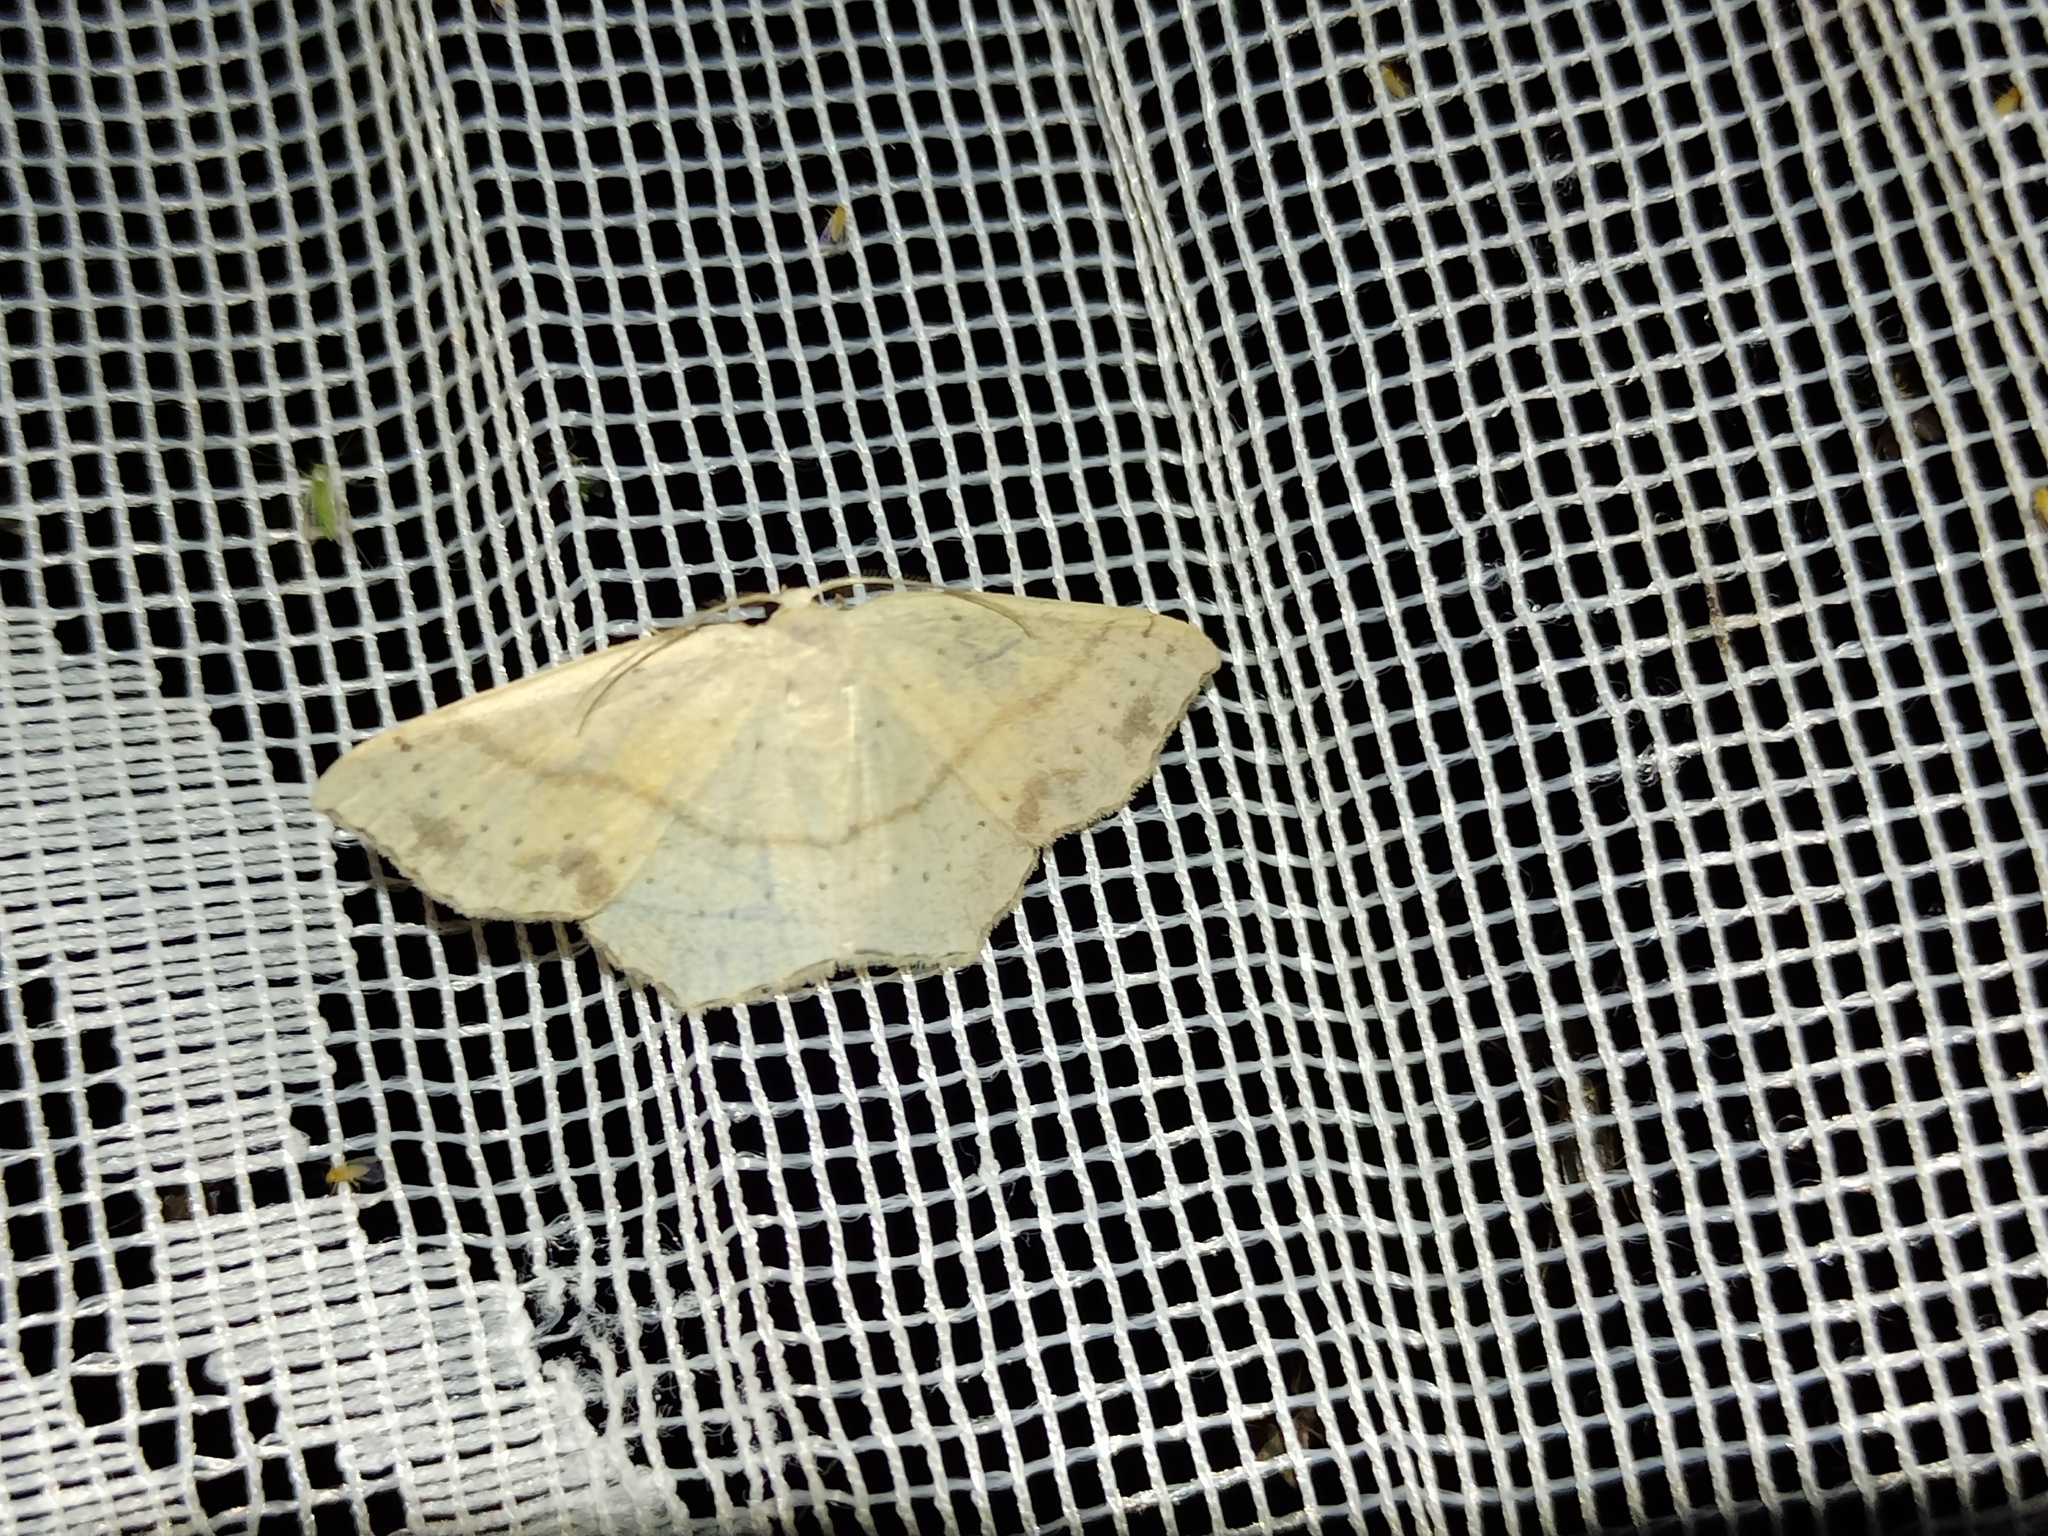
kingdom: Animalia
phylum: Arthropoda
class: Insecta
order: Lepidoptera
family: Geometridae
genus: Cyclophora
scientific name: Cyclophora punctaria
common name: Maiden's blush
